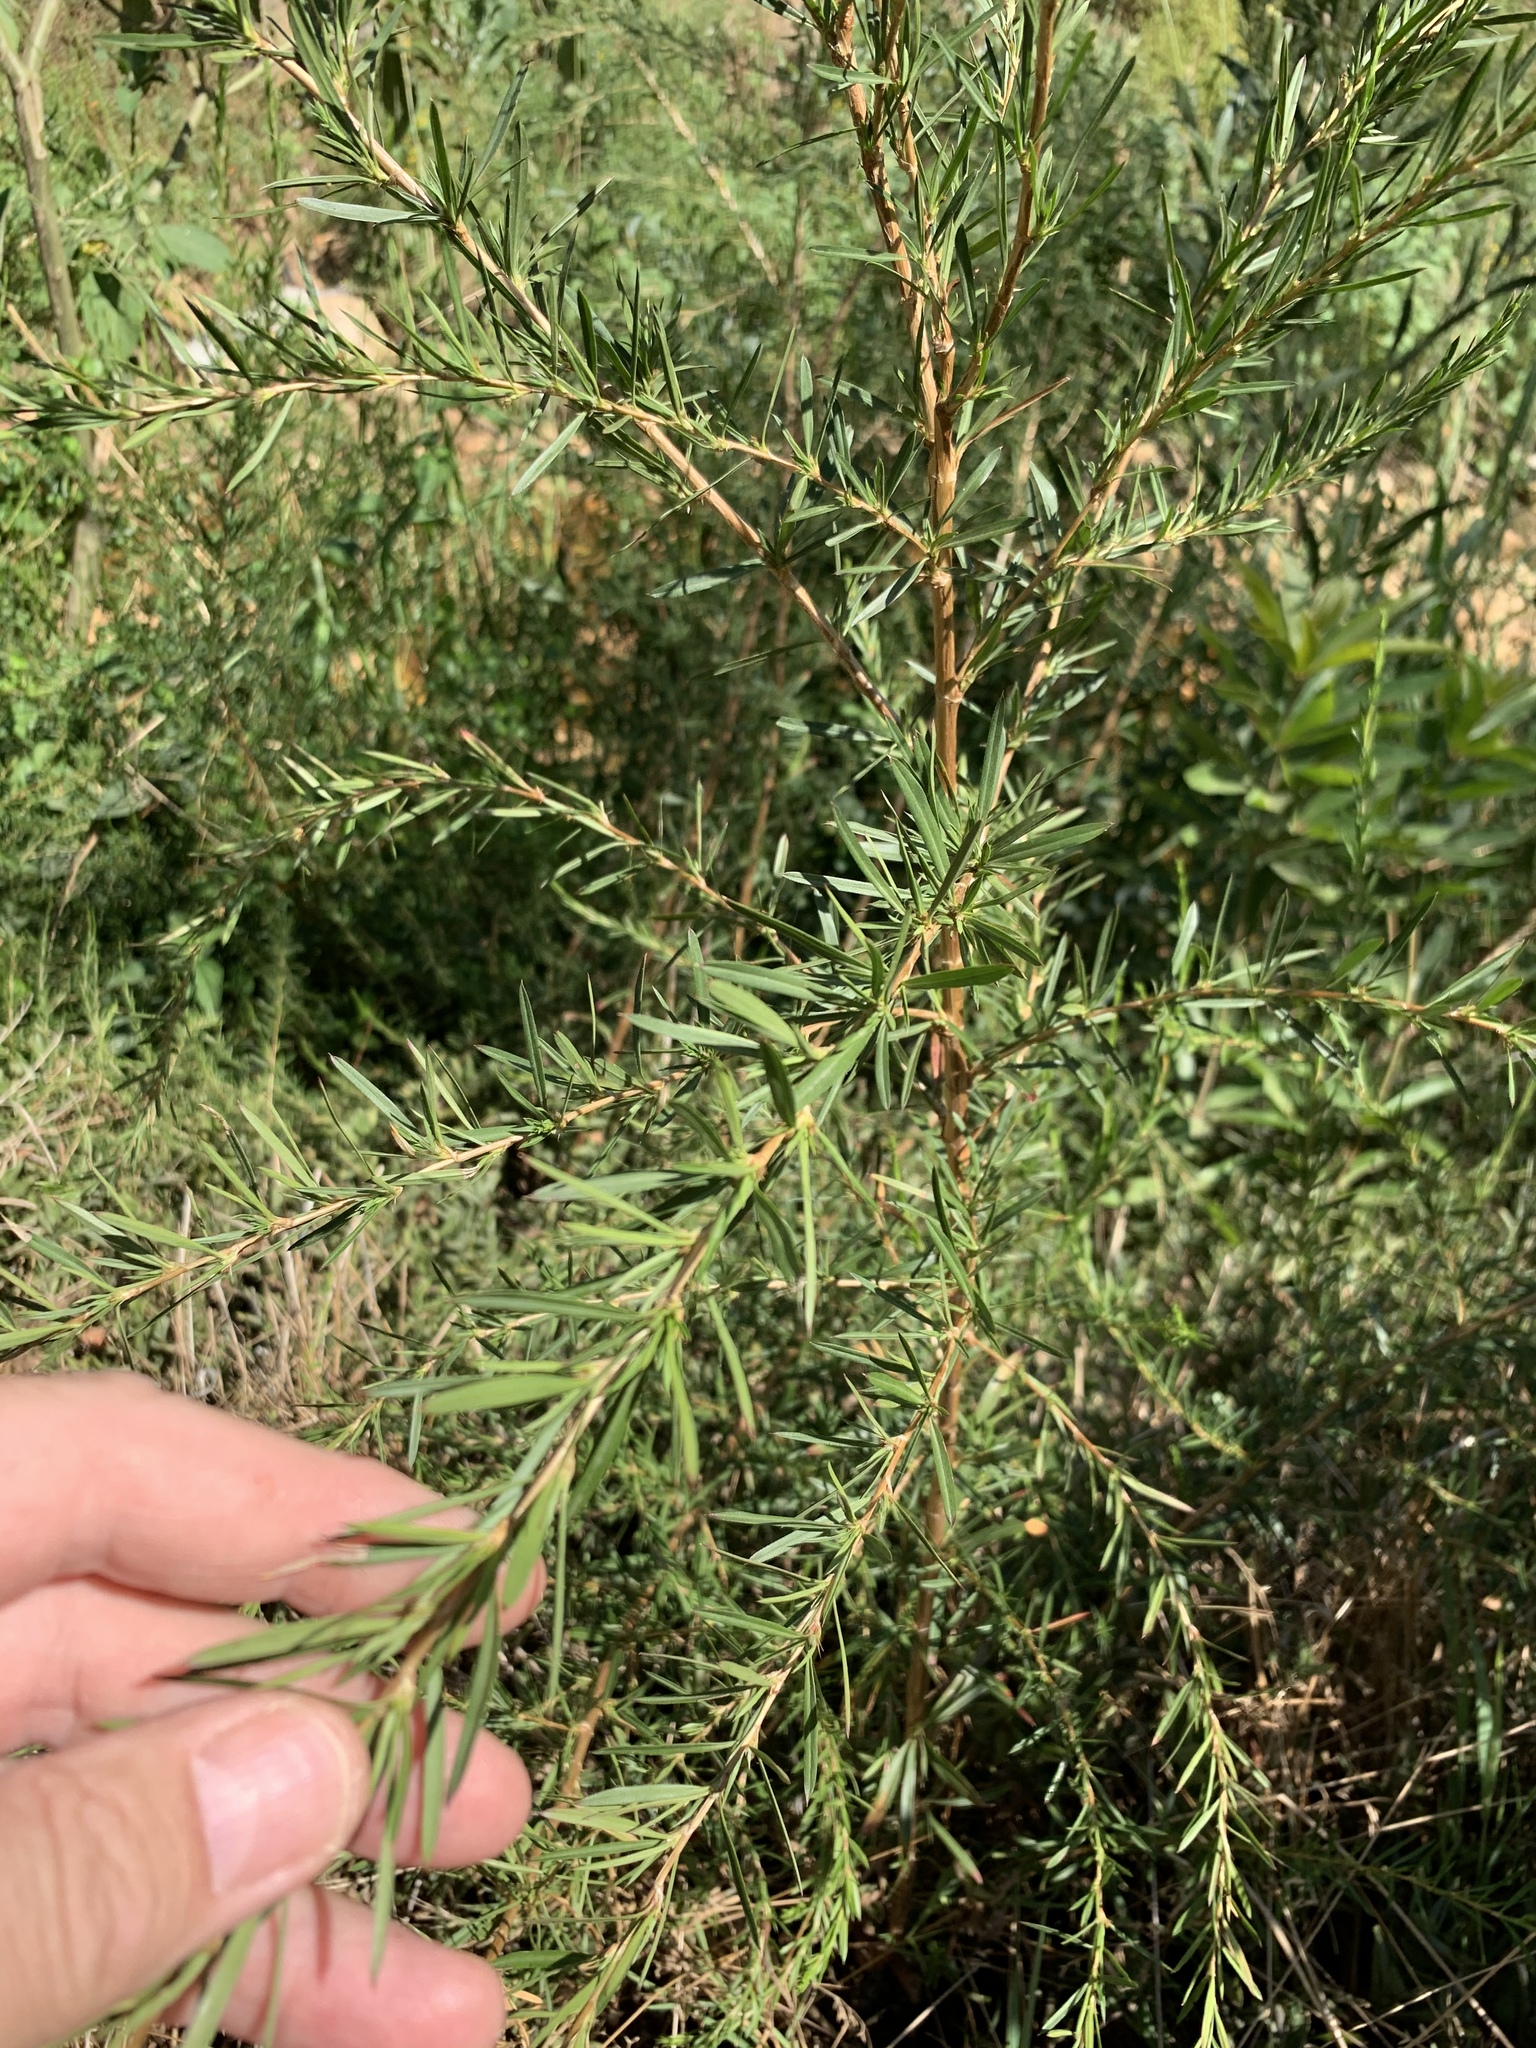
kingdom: Plantae
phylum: Tracheophyta
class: Magnoliopsida
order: Rosales
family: Rosaceae
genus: Cliffortia
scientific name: Cliffortia strobilifera
